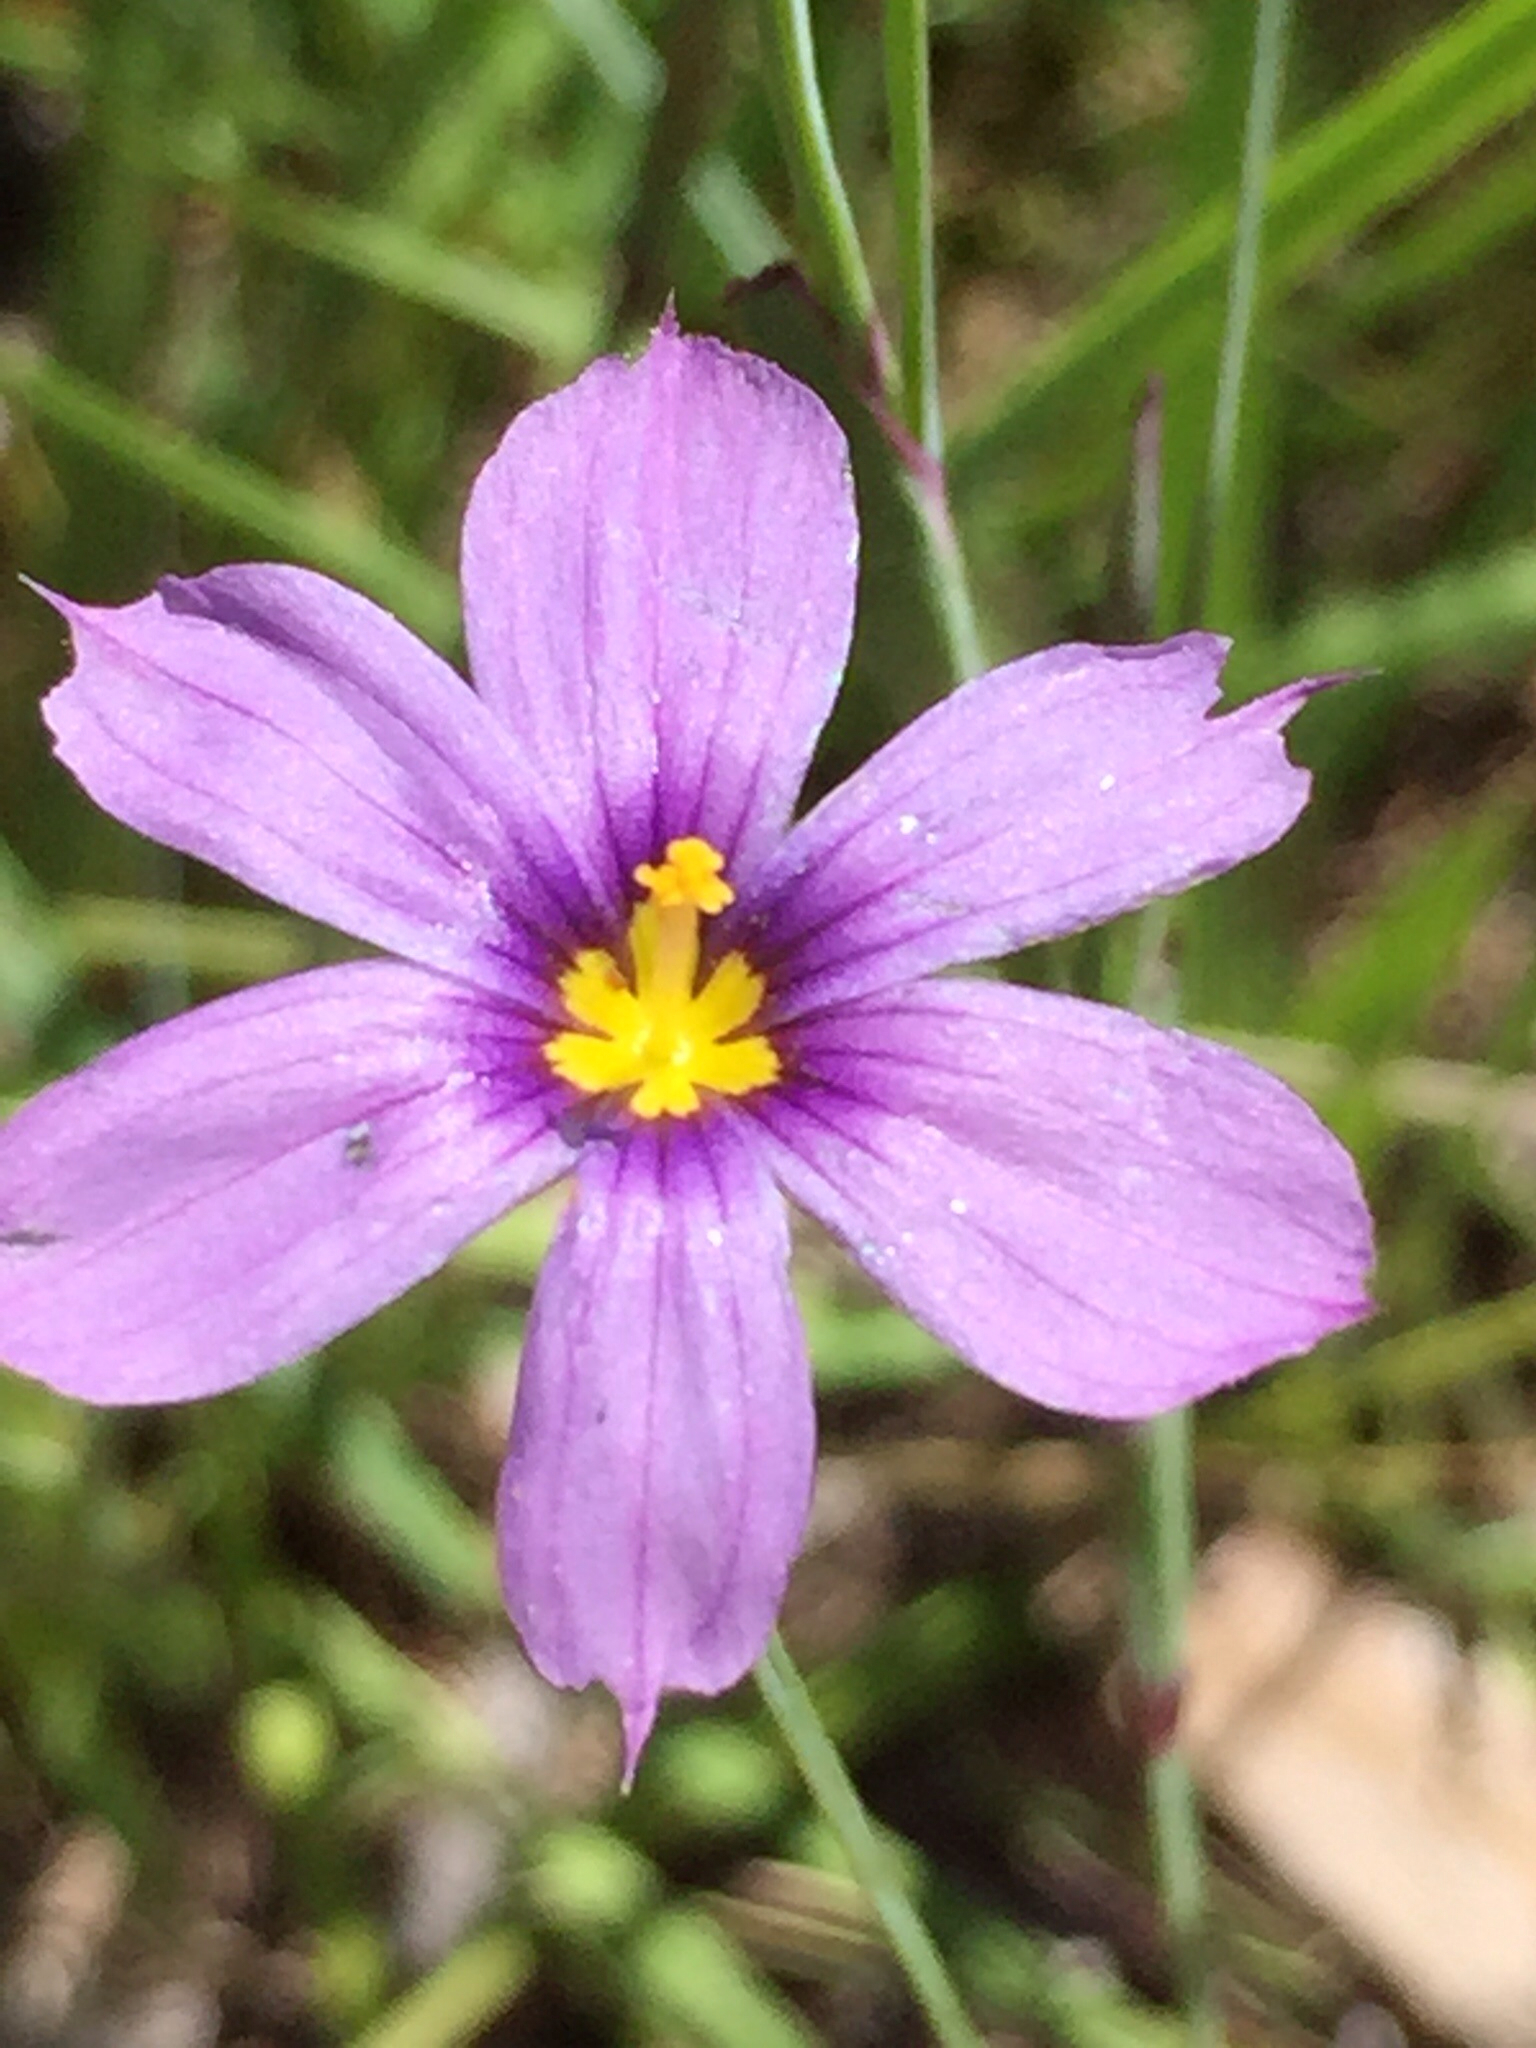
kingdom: Plantae
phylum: Tracheophyta
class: Liliopsida
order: Asparagales
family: Iridaceae
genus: Sisyrinchium
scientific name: Sisyrinchium bellum
